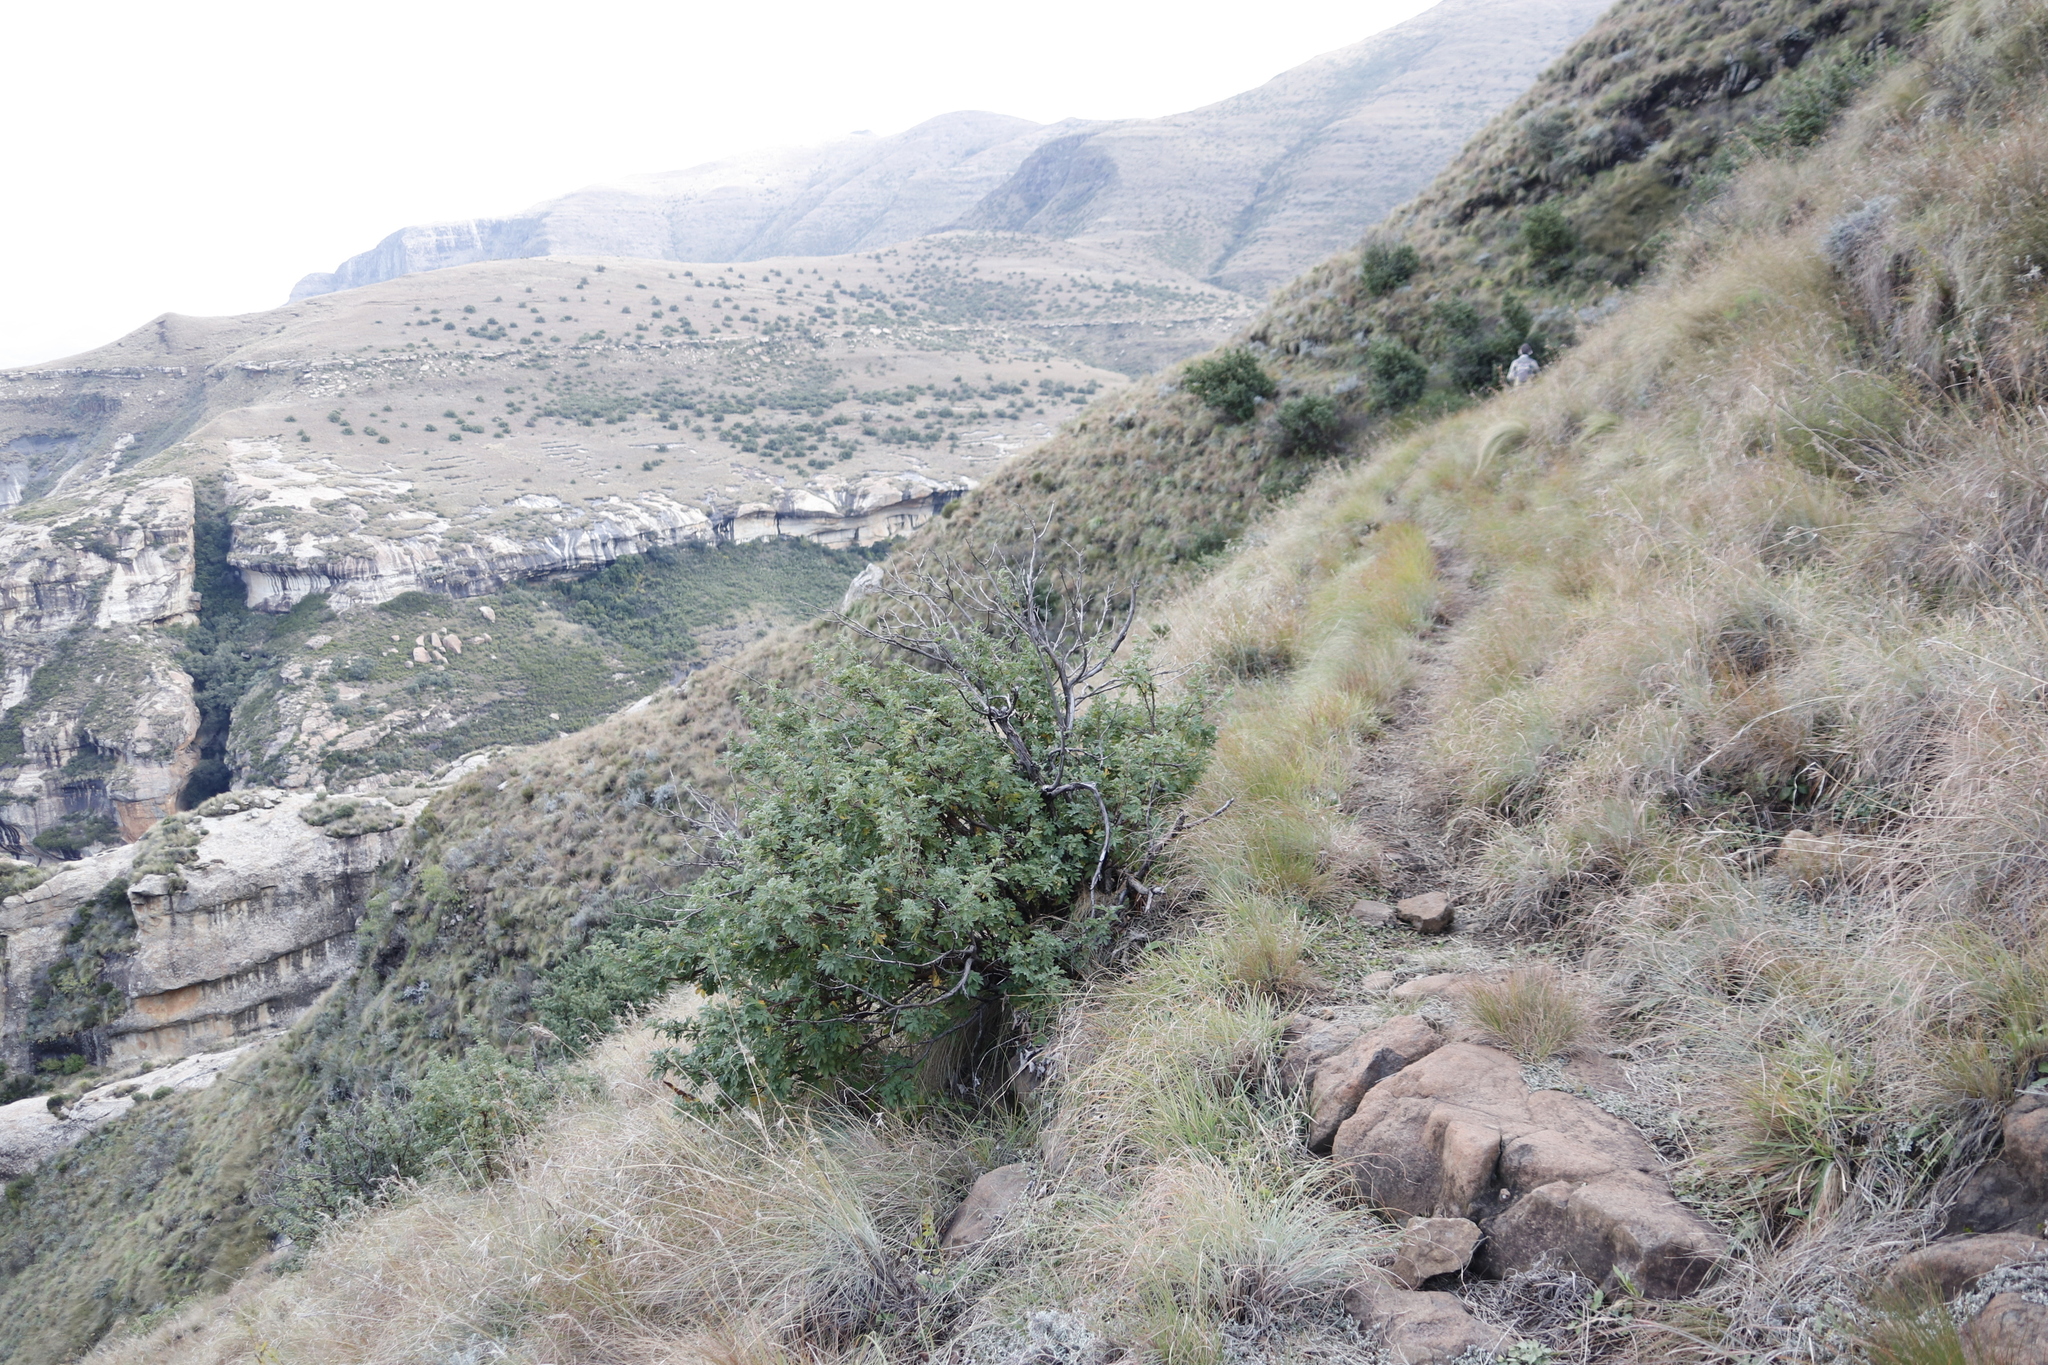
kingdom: Plantae
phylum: Tracheophyta
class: Magnoliopsida
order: Rosales
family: Rosaceae
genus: Leucosidea
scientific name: Leucosidea sericea
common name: Oldwood
